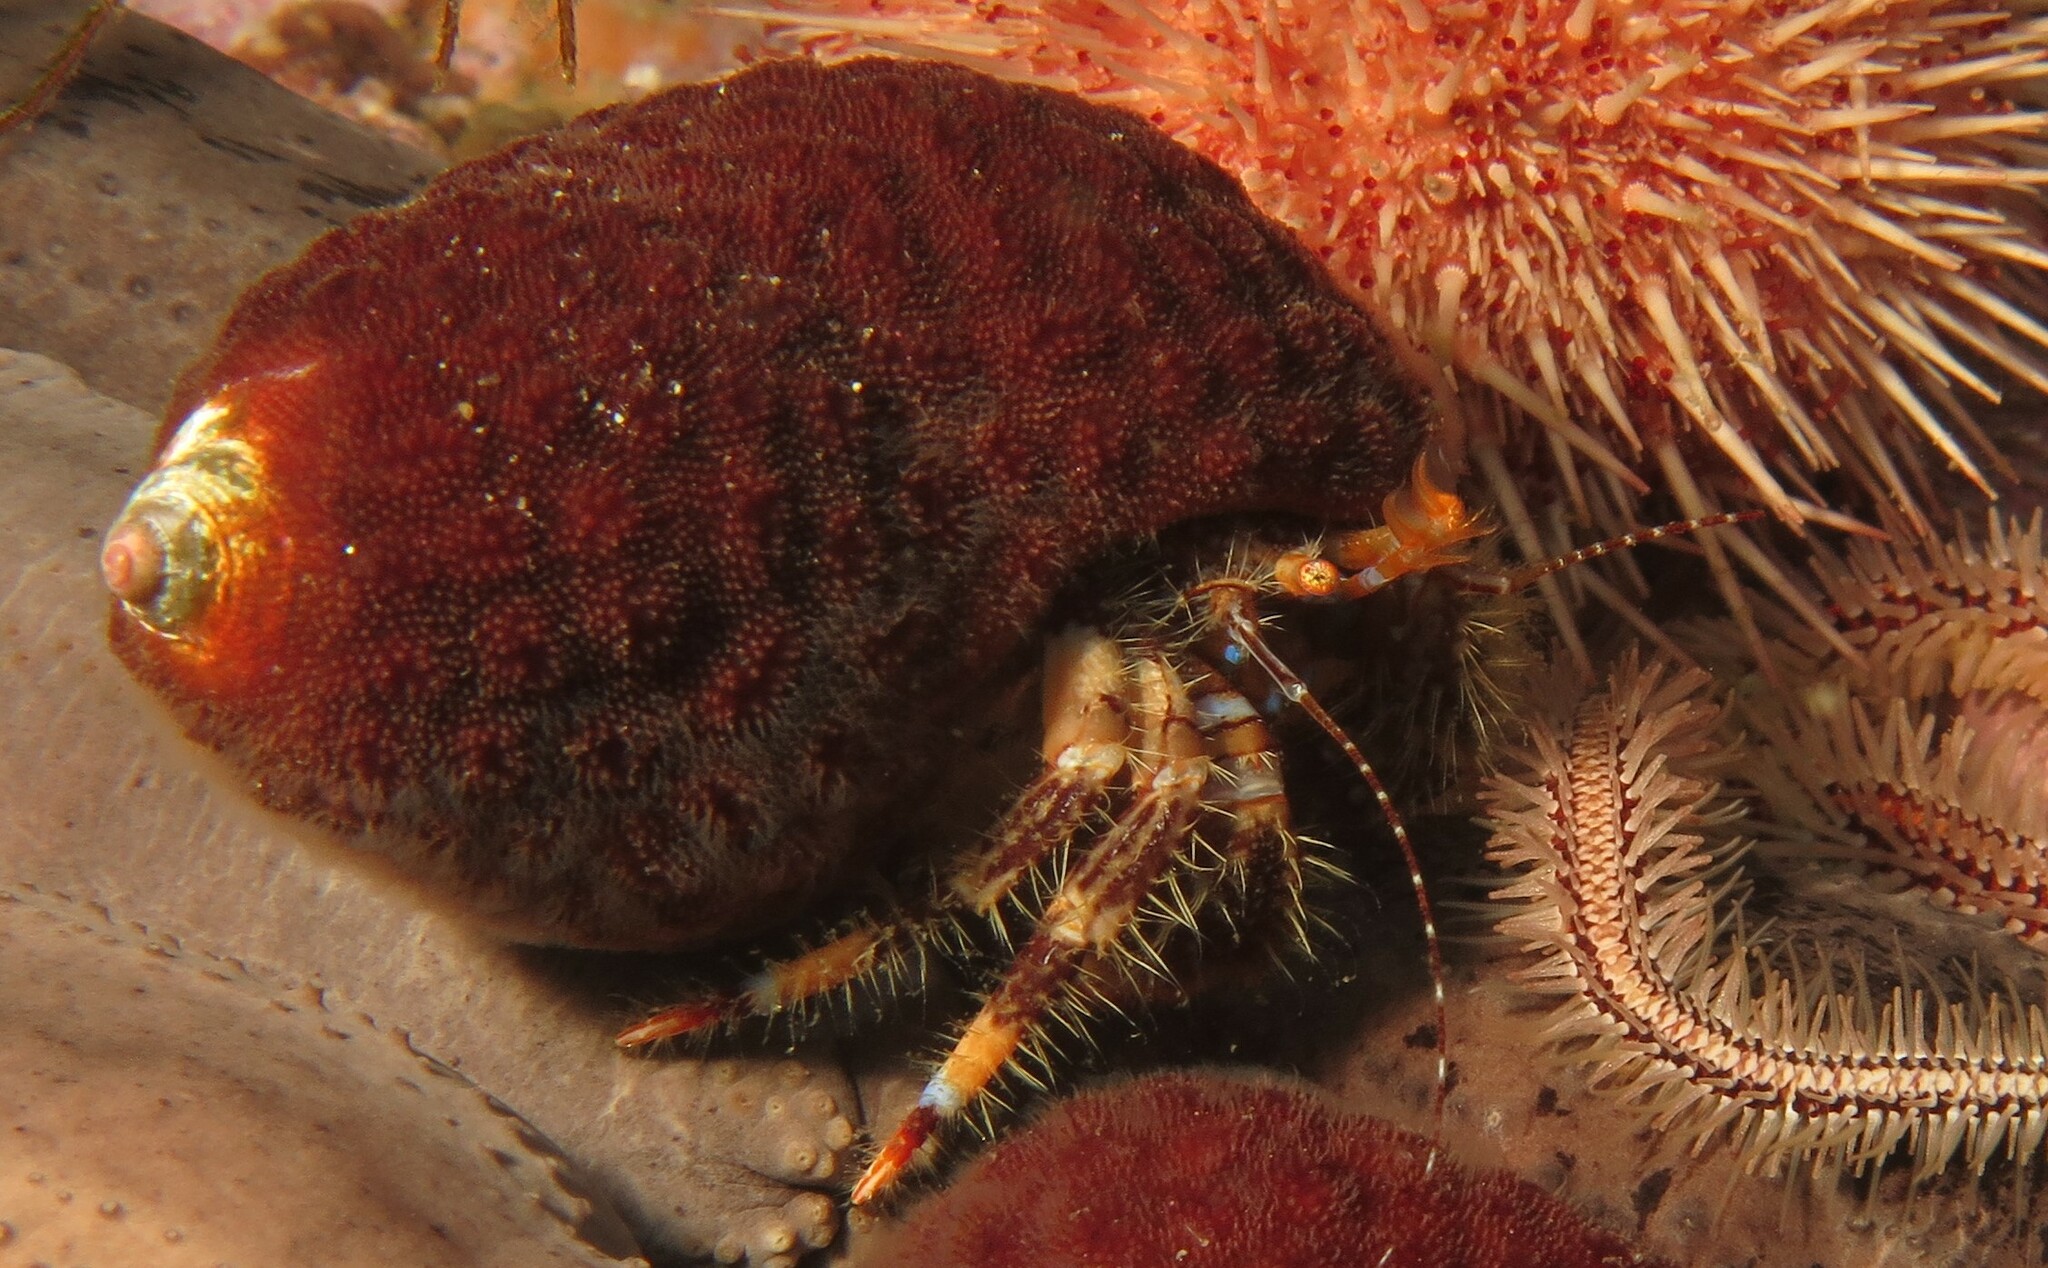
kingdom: Animalia
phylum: Arthropoda
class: Malacostraca
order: Decapoda
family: Paguridae
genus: Pagurus
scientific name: Pagurus liochele
